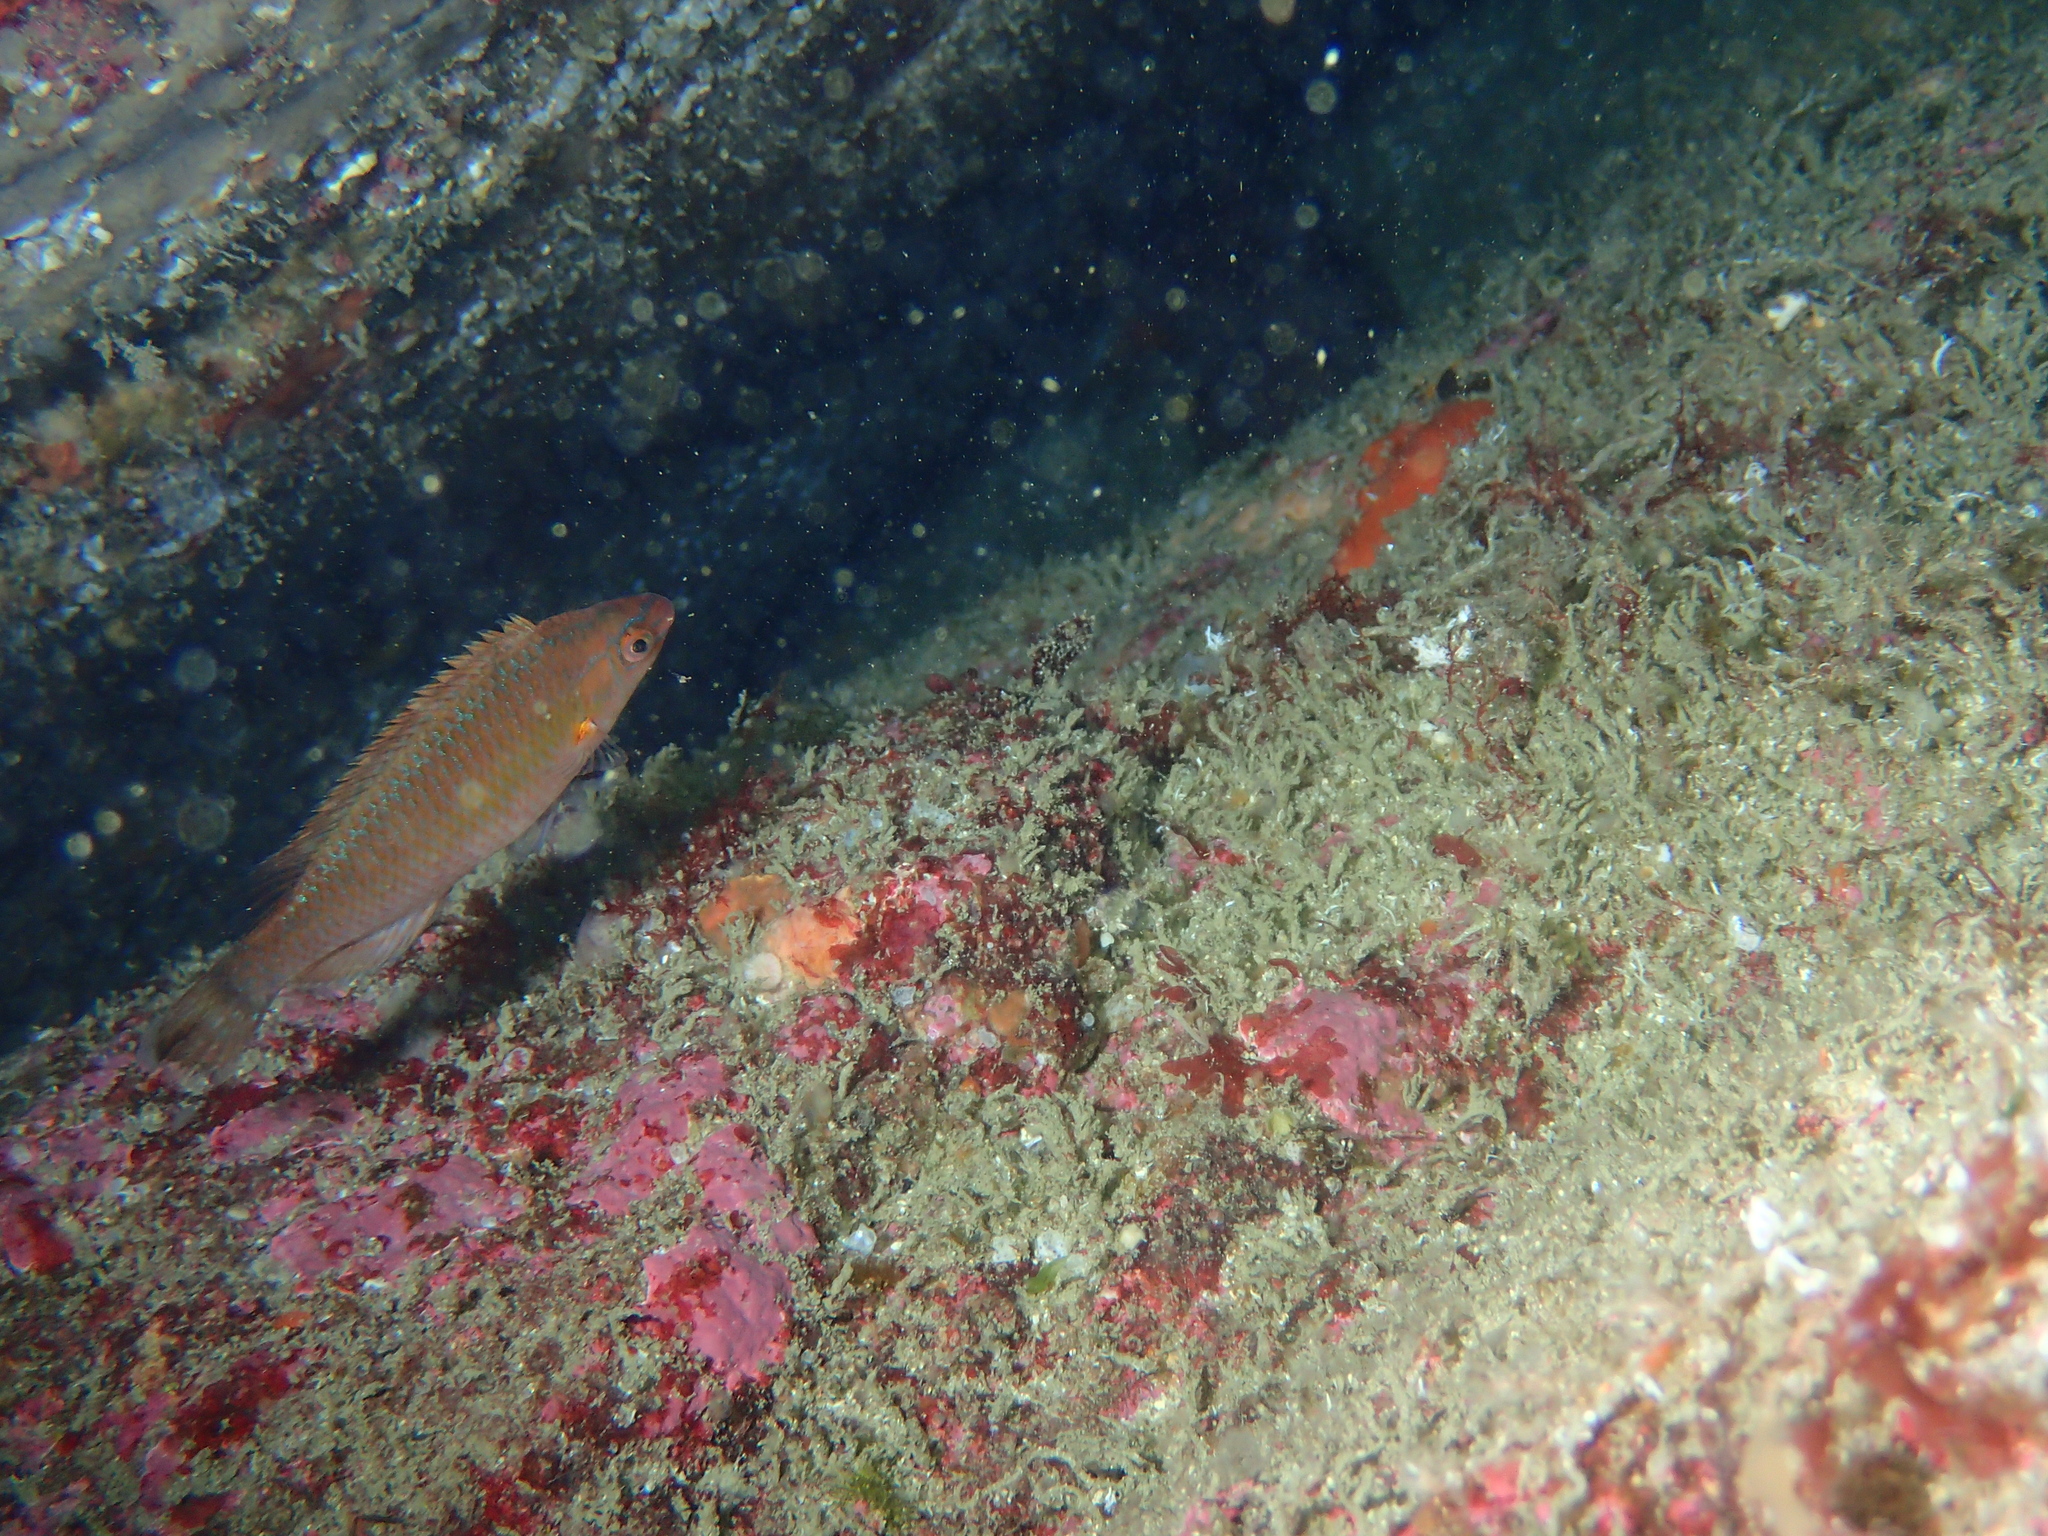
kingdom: Animalia
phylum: Chordata
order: Perciformes
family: Labridae
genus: Centrolabrus
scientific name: Centrolabrus exoletus
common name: Rock cook
